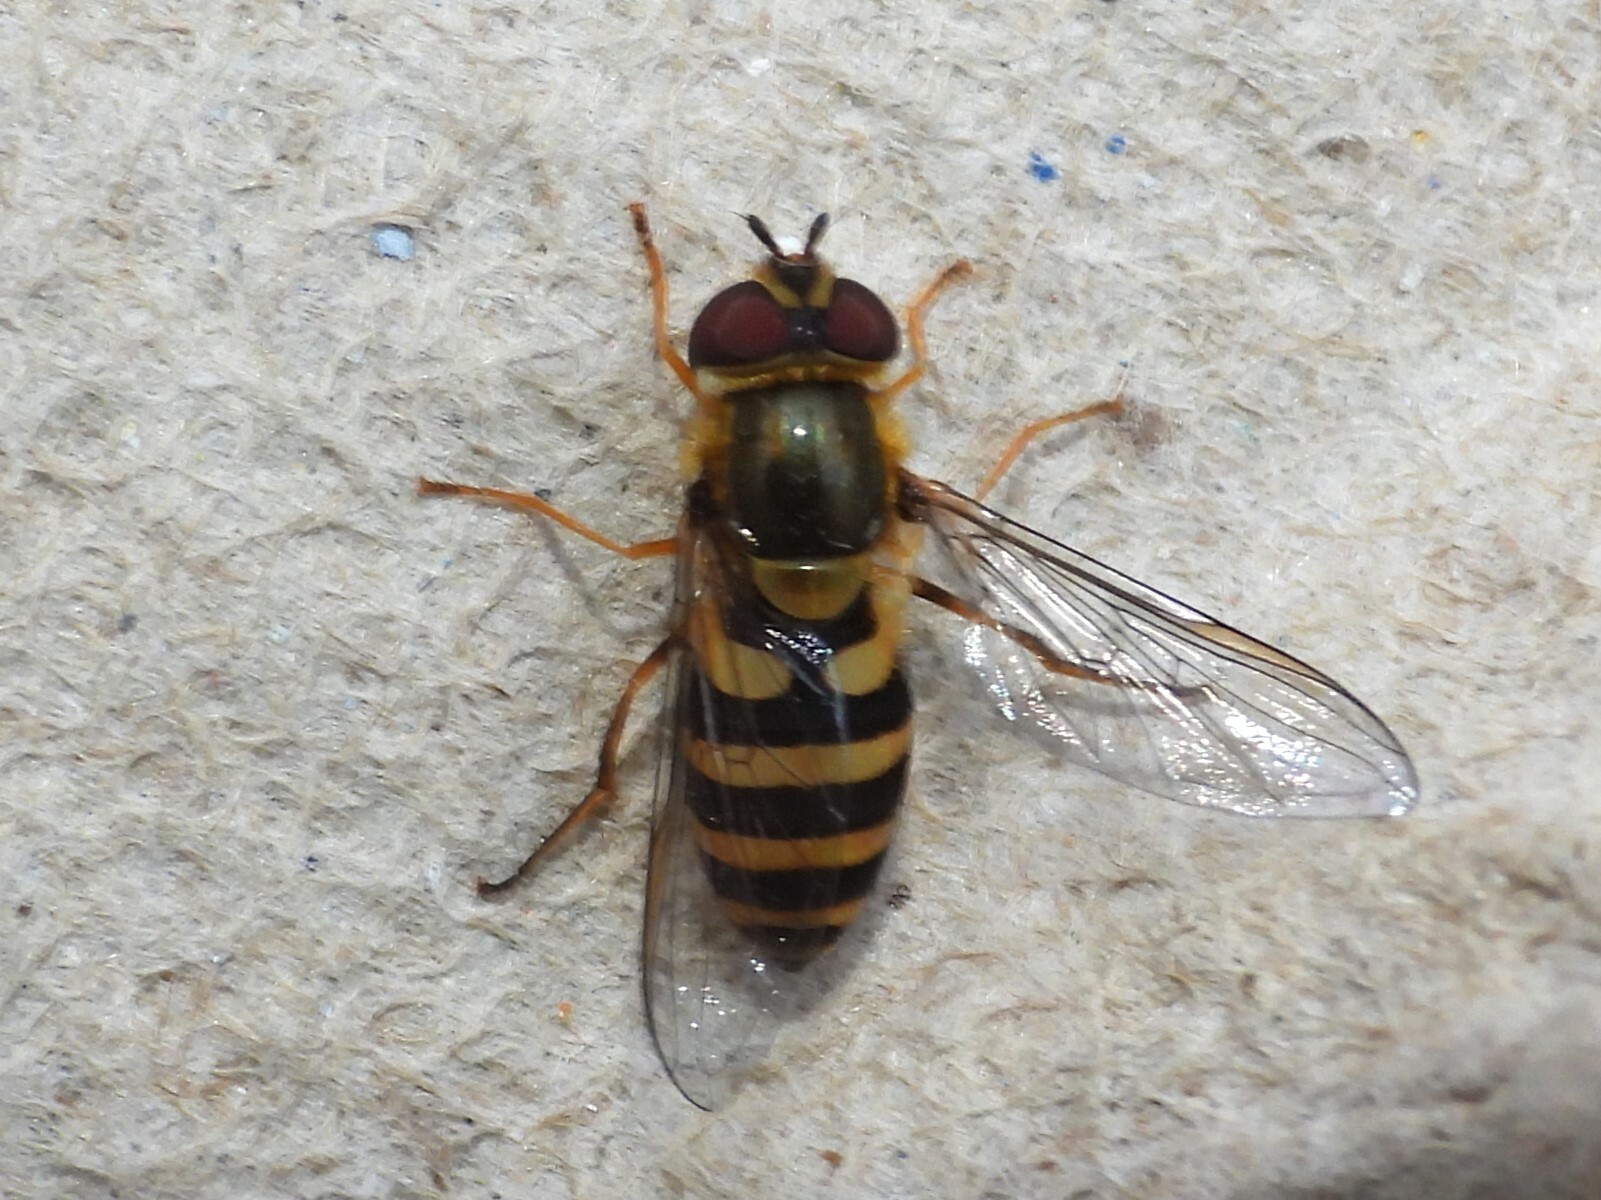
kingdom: Animalia
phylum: Arthropoda
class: Insecta
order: Diptera
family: Syrphidae
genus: Syrphus
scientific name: Syrphus rectus
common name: Yellow-legged flower fly
